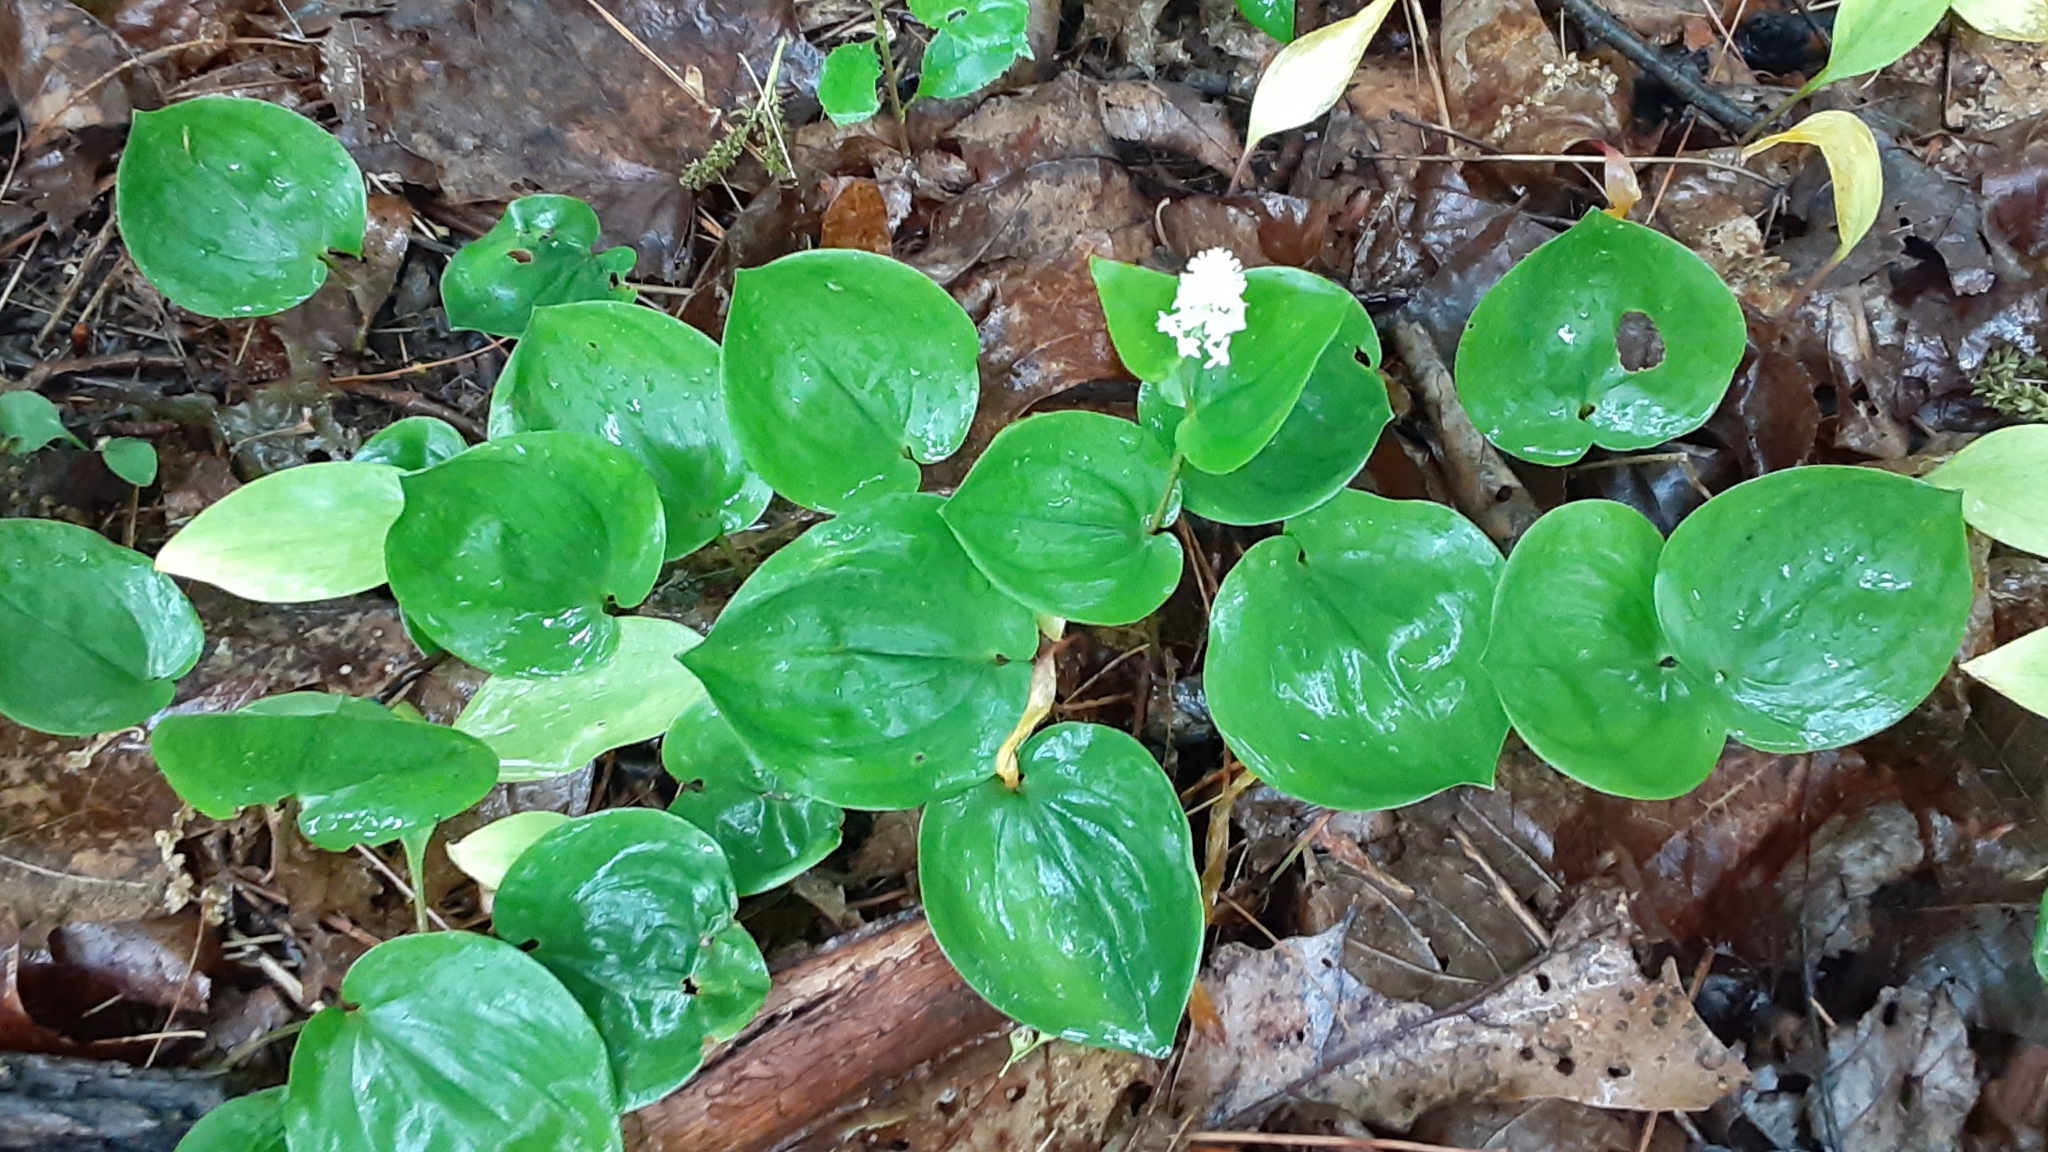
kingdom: Plantae
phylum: Tracheophyta
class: Liliopsida
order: Asparagales
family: Asparagaceae
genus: Maianthemum
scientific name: Maianthemum canadense
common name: False lily-of-the-valley
